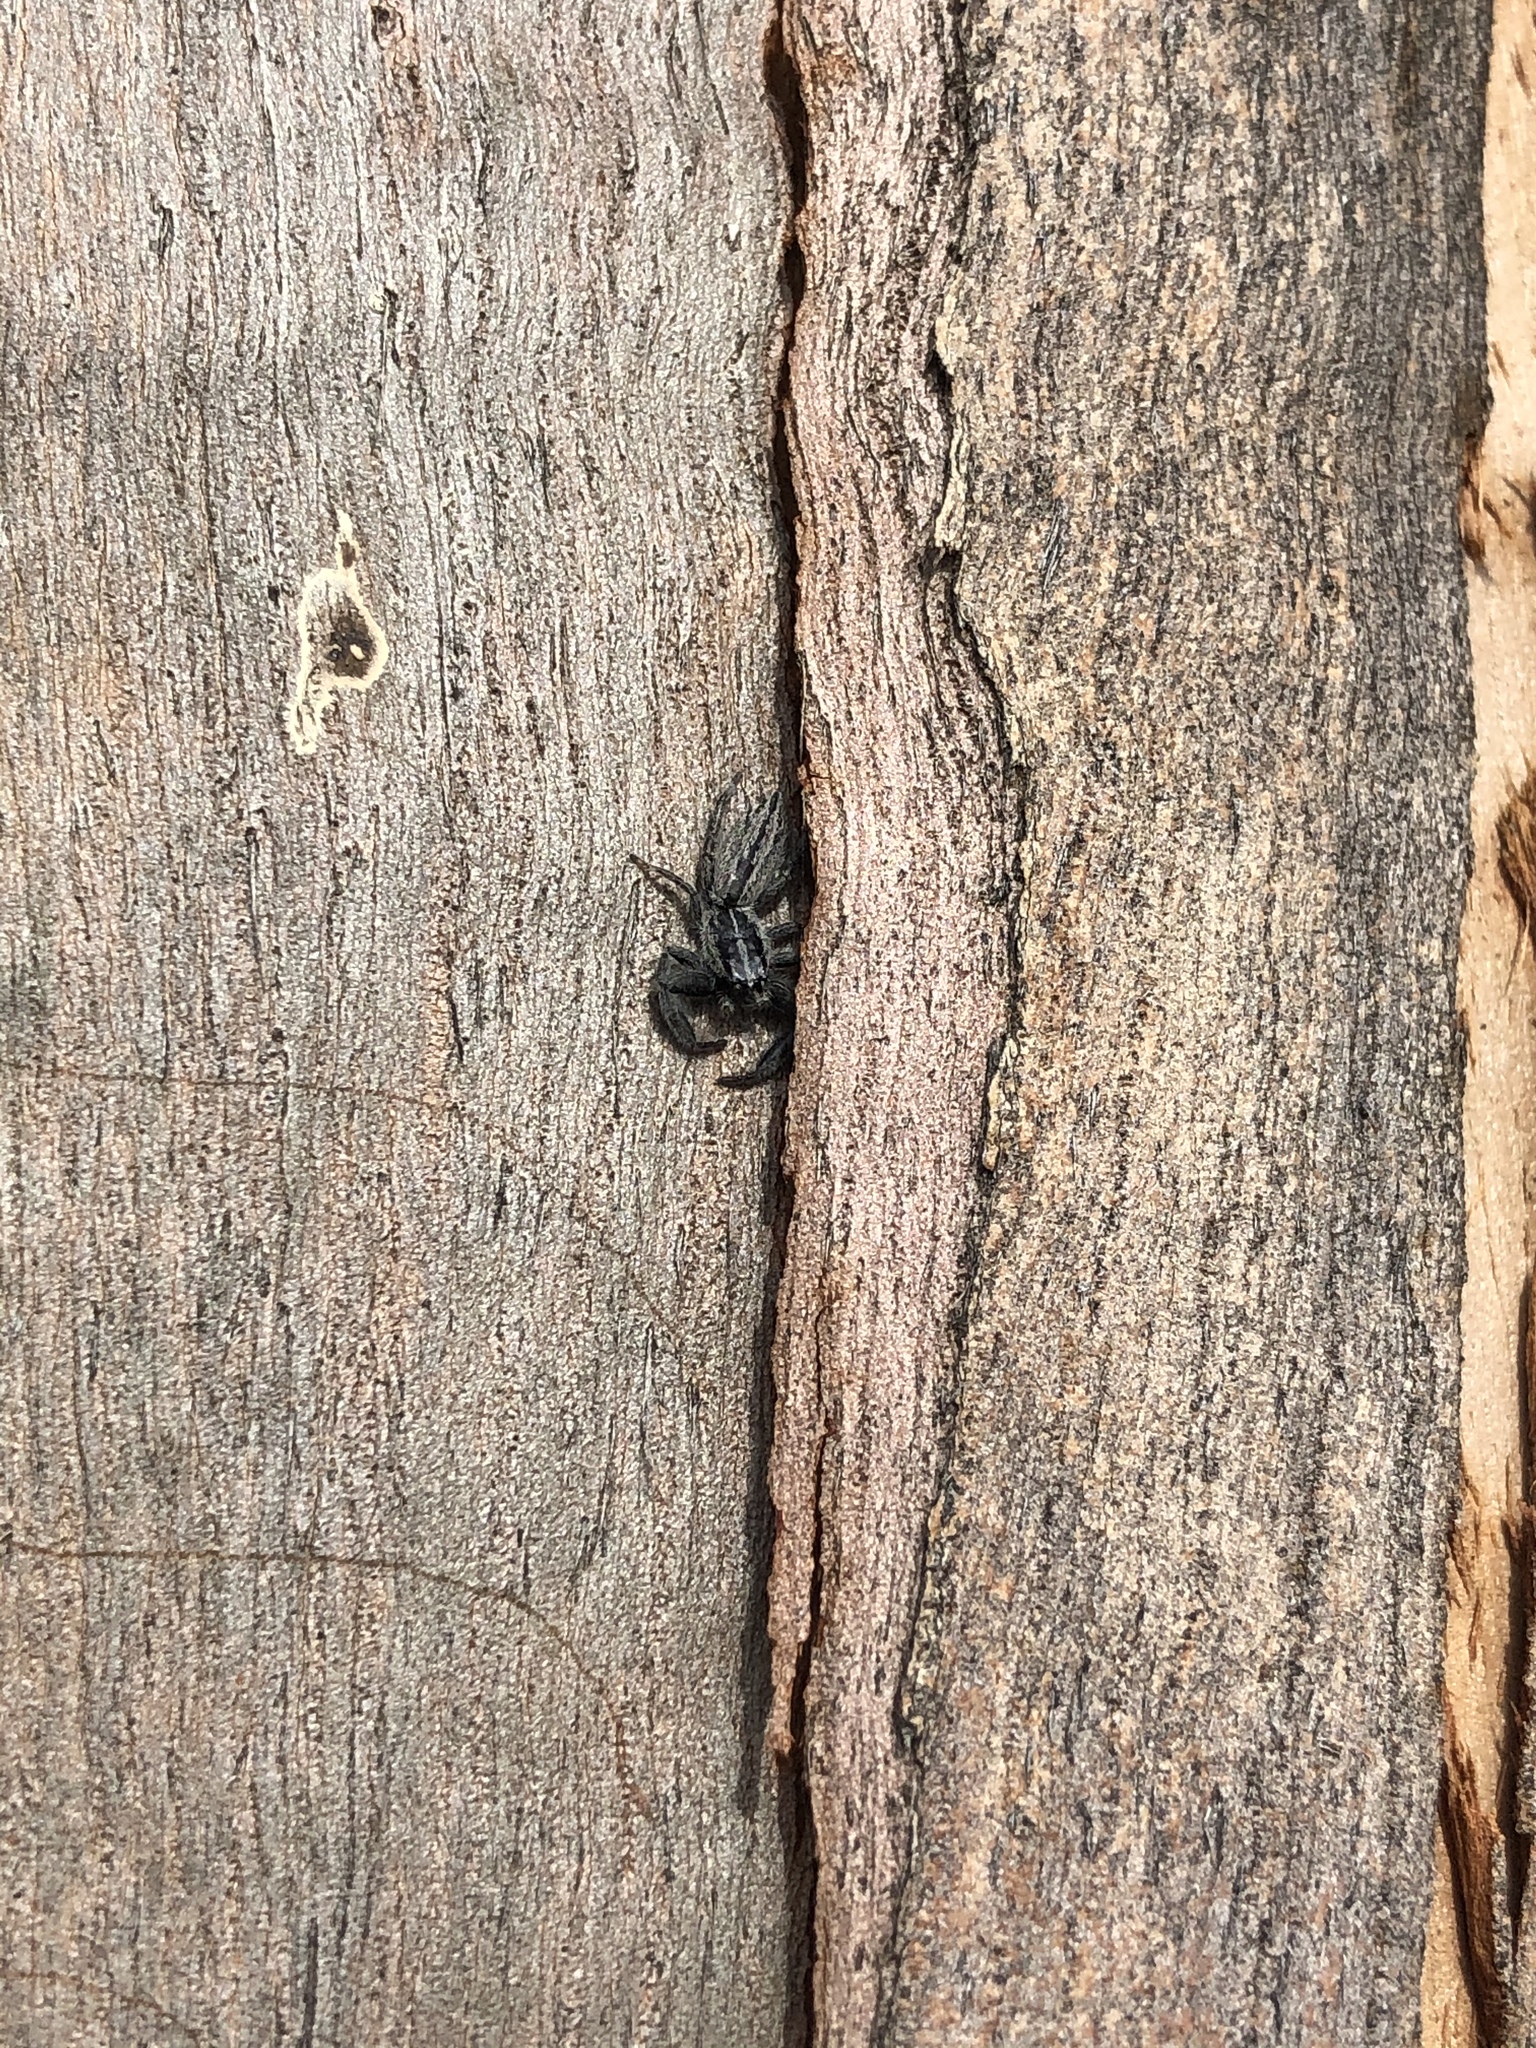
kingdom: Animalia
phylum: Arthropoda
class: Arachnida
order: Araneae
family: Salticidae
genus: Holoplatys
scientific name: Holoplatys apressus
